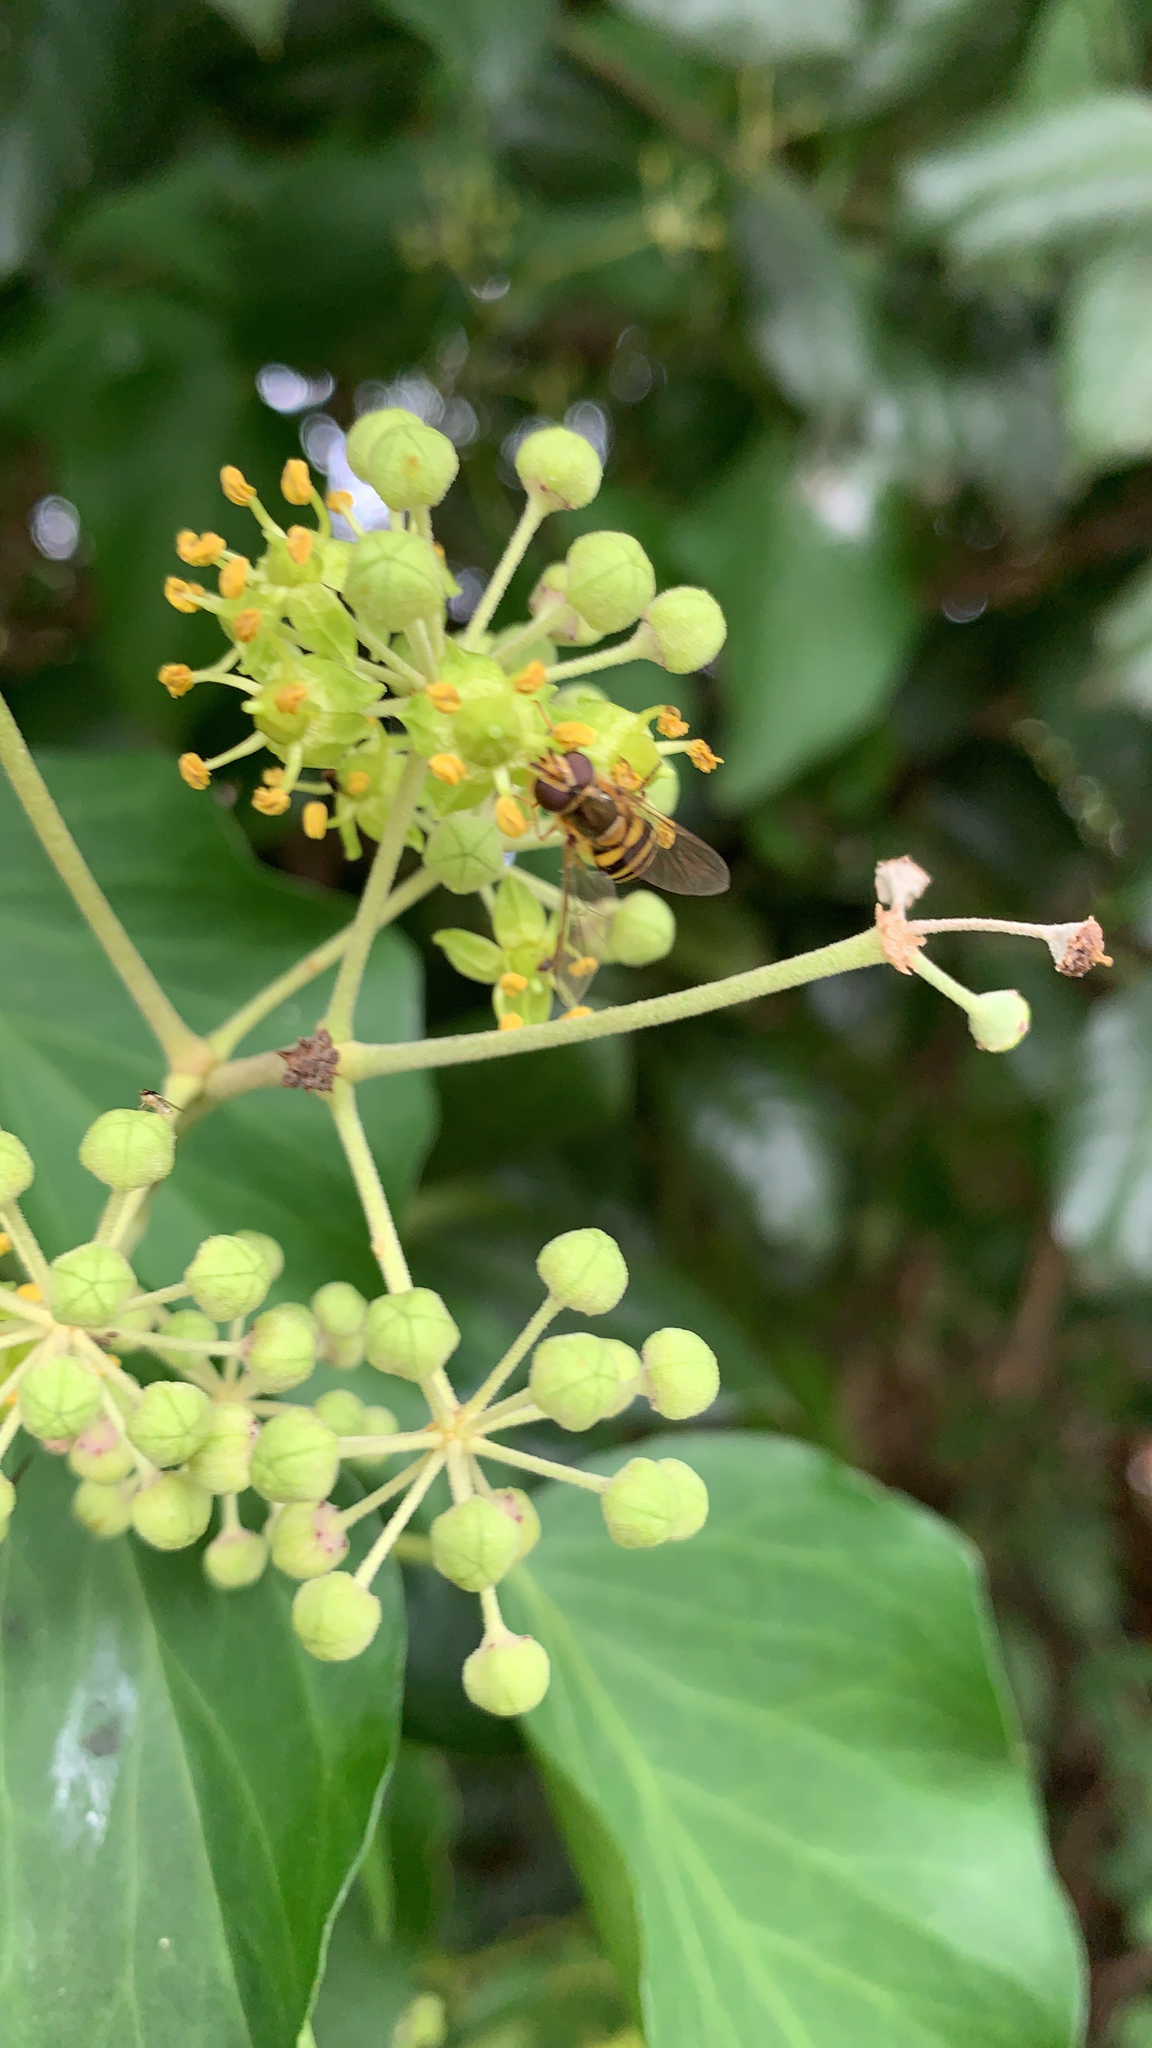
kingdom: Animalia
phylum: Arthropoda
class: Insecta
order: Diptera
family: Syrphidae
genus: Eupeodes
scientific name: Eupeodes
